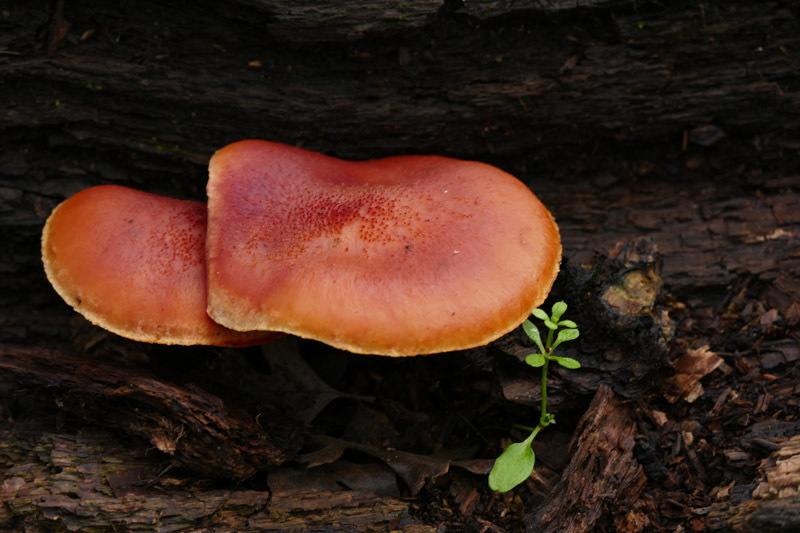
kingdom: Fungi
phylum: Basidiomycota
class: Agaricomycetes
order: Agaricales
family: Hymenogastraceae
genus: Gymnopilus
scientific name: Gymnopilus luteofolius
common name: Yellow-gilled gymnopilus
